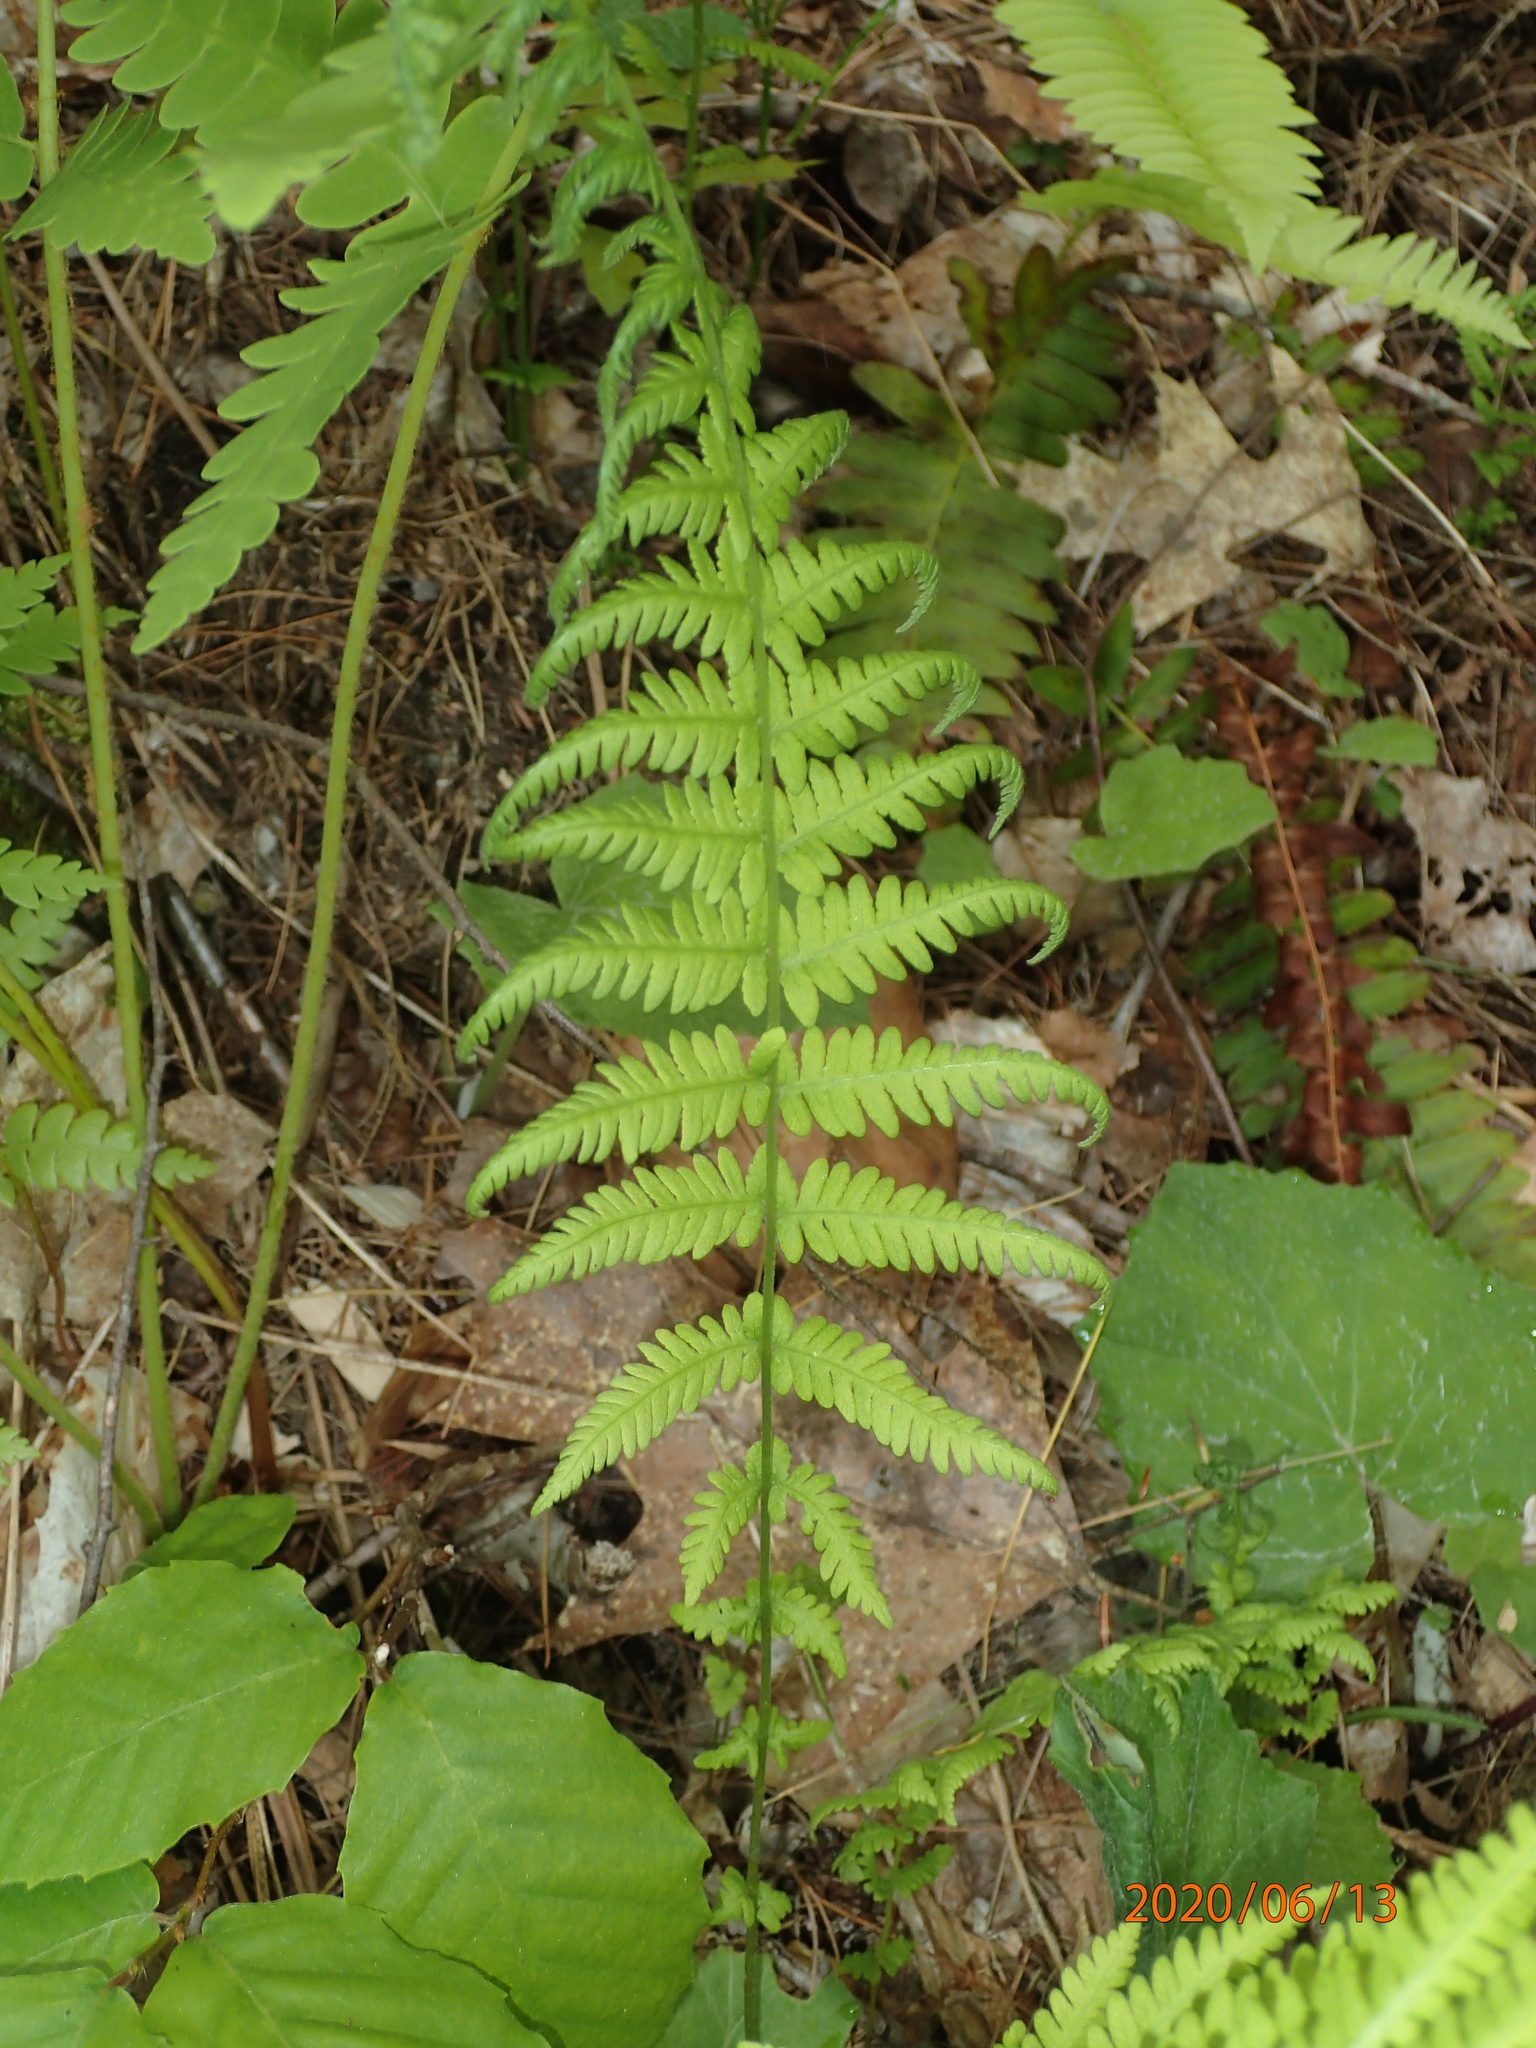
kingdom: Plantae
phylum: Tracheophyta
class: Polypodiopsida
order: Polypodiales
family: Thelypteridaceae
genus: Amauropelta
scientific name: Amauropelta noveboracensis
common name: New york fern
